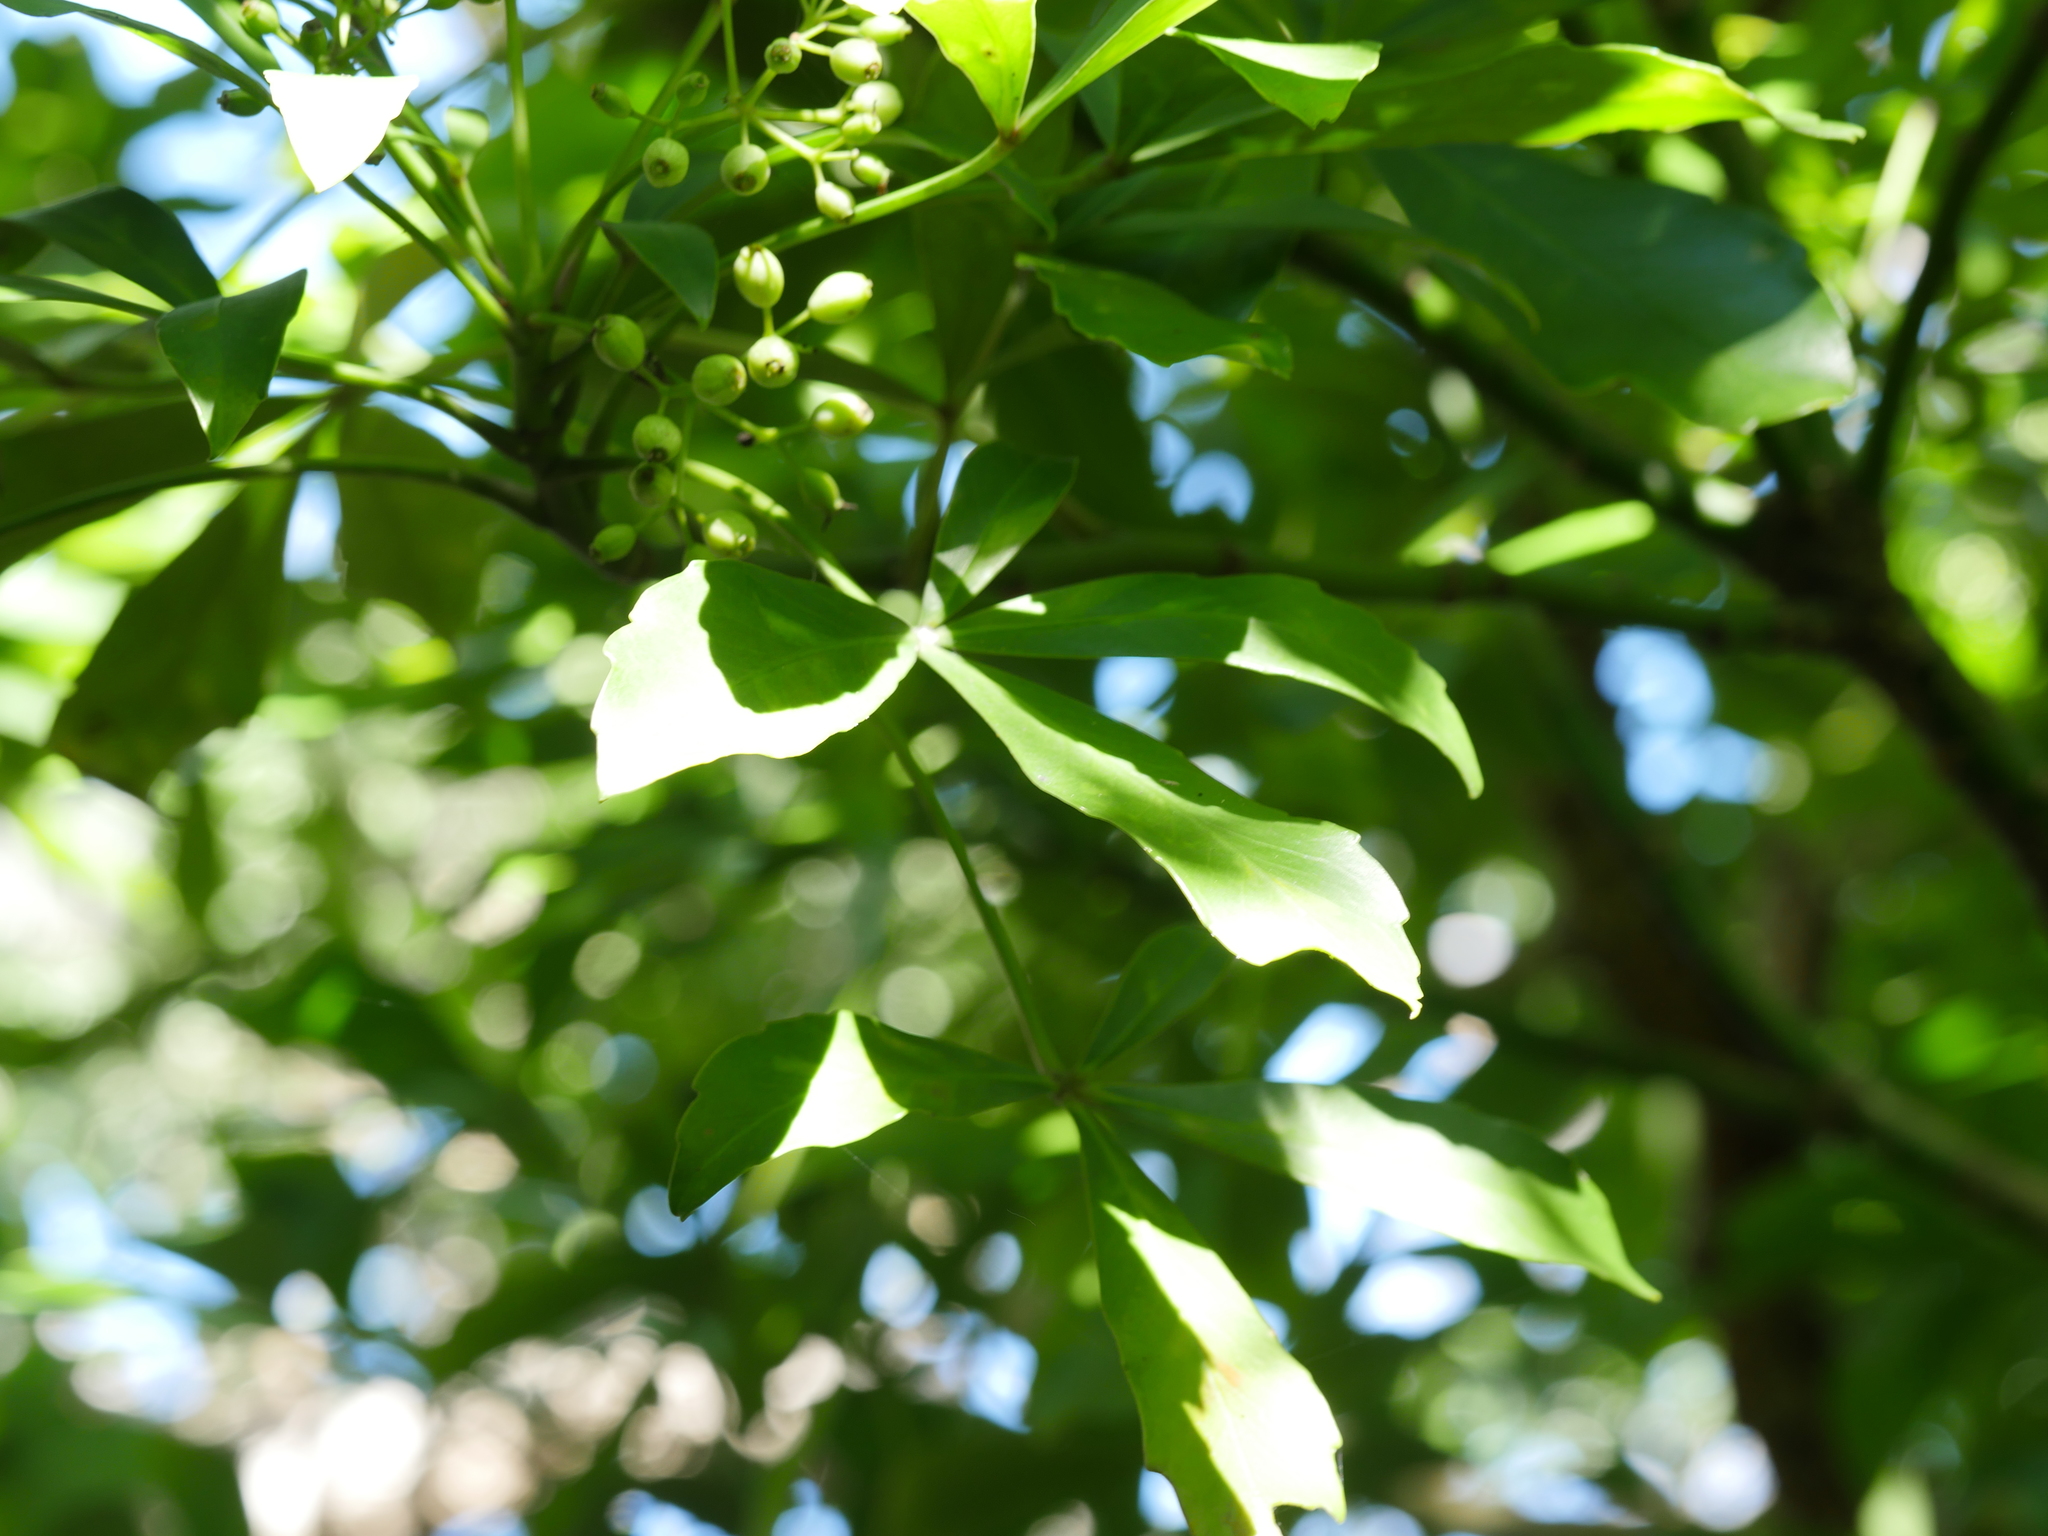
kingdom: Plantae
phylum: Tracheophyta
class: Magnoliopsida
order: Apiales
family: Araliaceae
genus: Pseudopanax
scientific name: Pseudopanax lessonii
